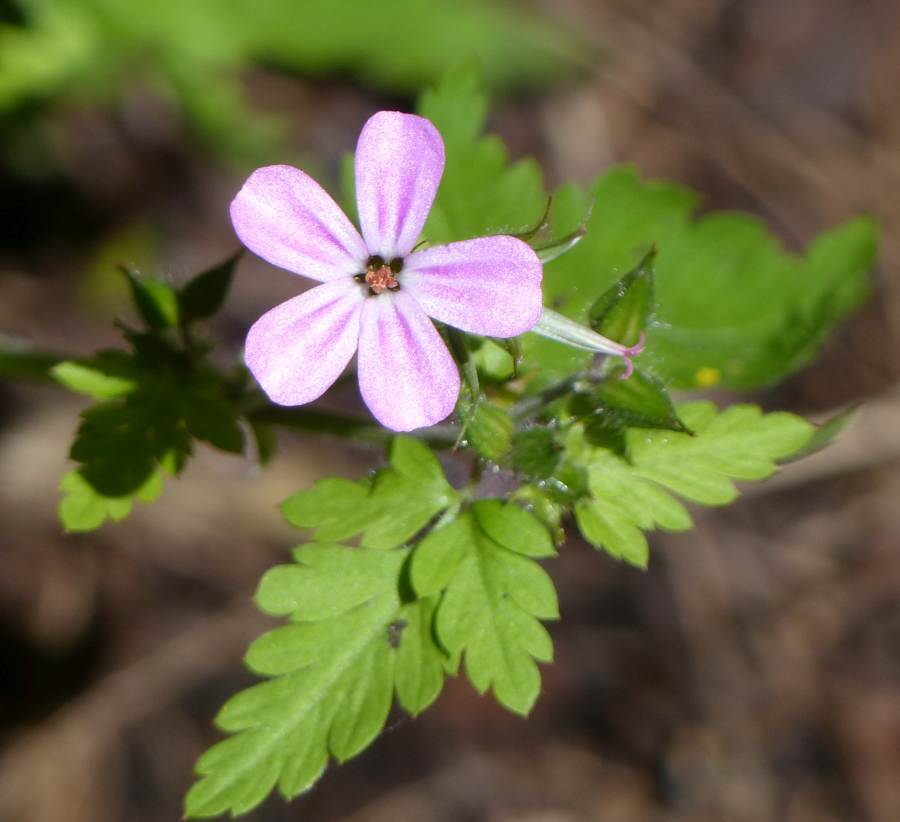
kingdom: Plantae
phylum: Tracheophyta
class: Magnoliopsida
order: Geraniales
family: Geraniaceae
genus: Geranium
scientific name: Geranium robertianum
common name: Herb-robert
